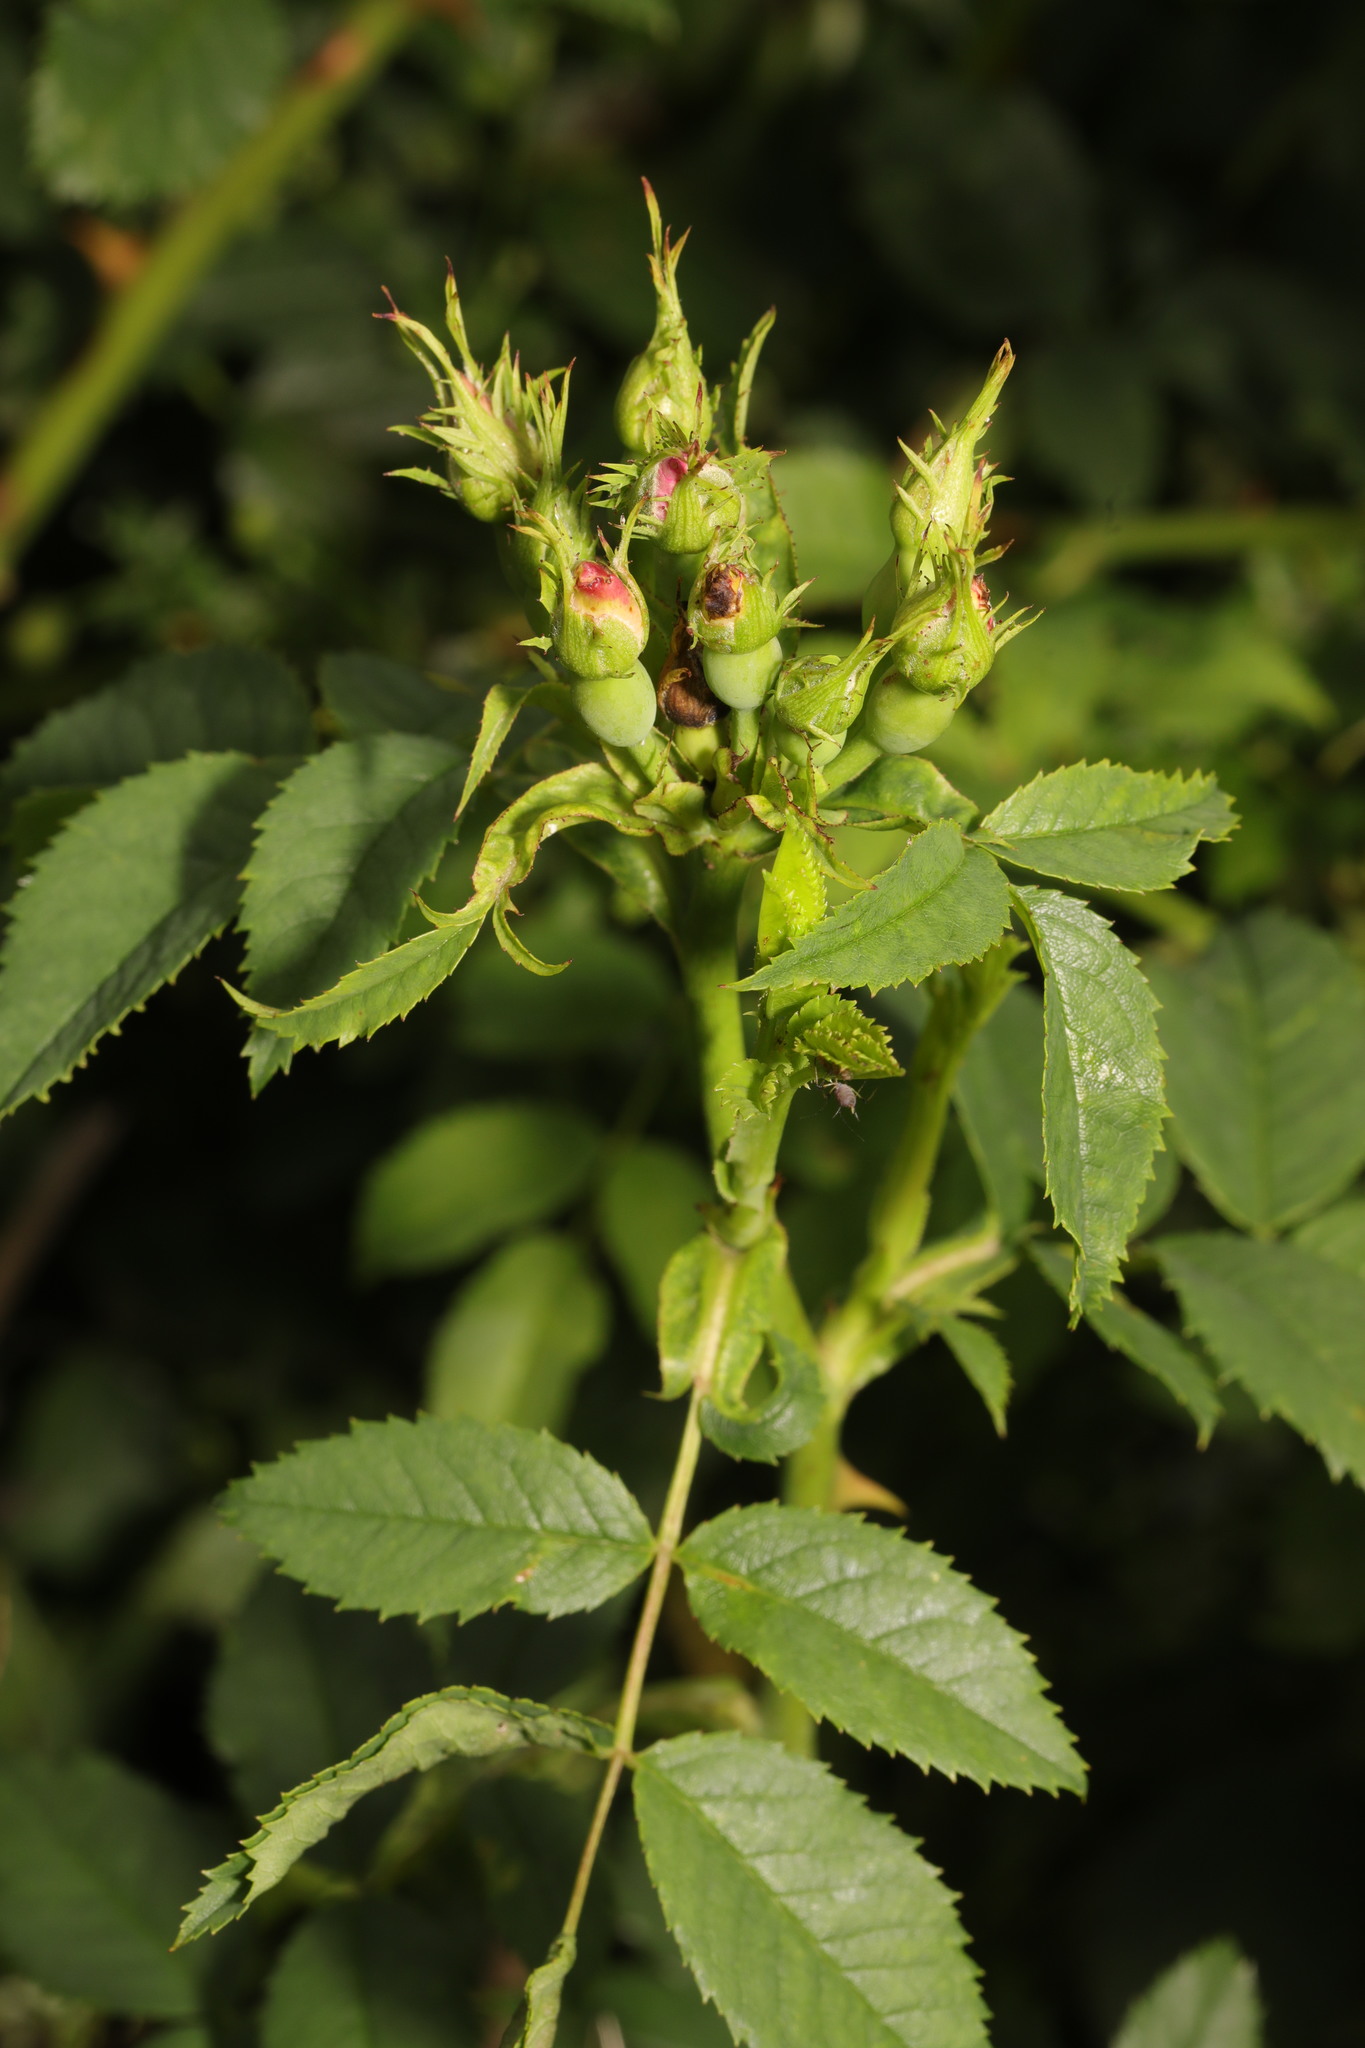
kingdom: Plantae
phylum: Tracheophyta
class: Magnoliopsida
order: Rosales
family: Rosaceae
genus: Rosa
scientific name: Rosa canina
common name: Dog rose
